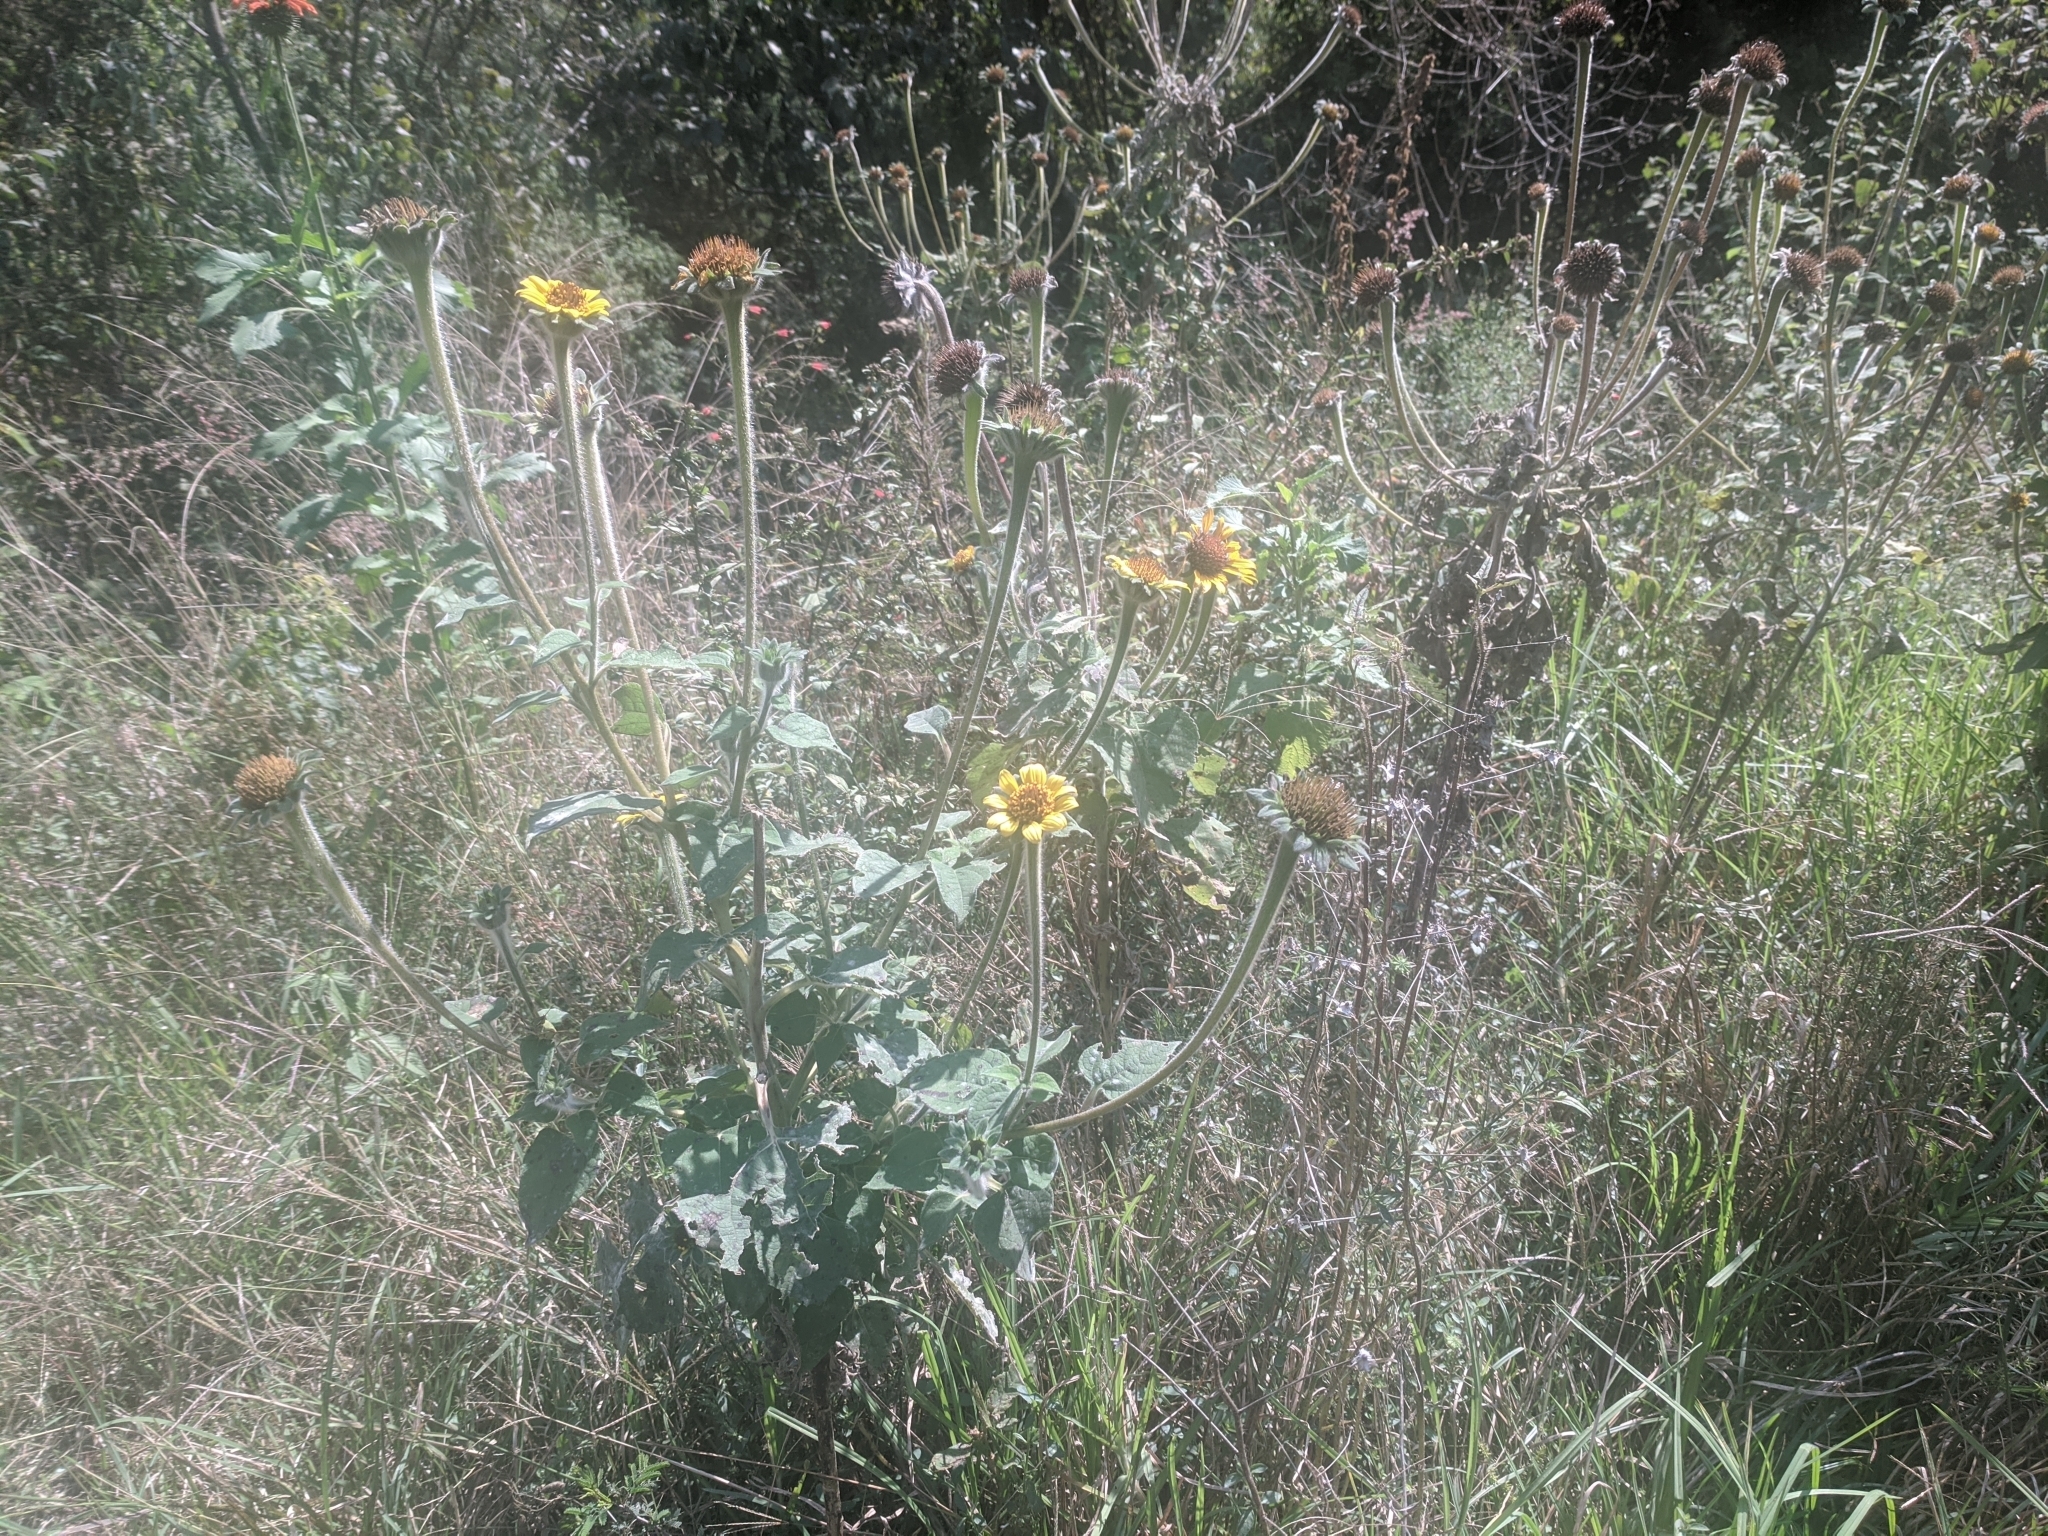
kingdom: Plantae
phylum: Tracheophyta
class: Magnoliopsida
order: Asterales
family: Asteraceae
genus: Tithonia
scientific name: Tithonia tubaeformis
